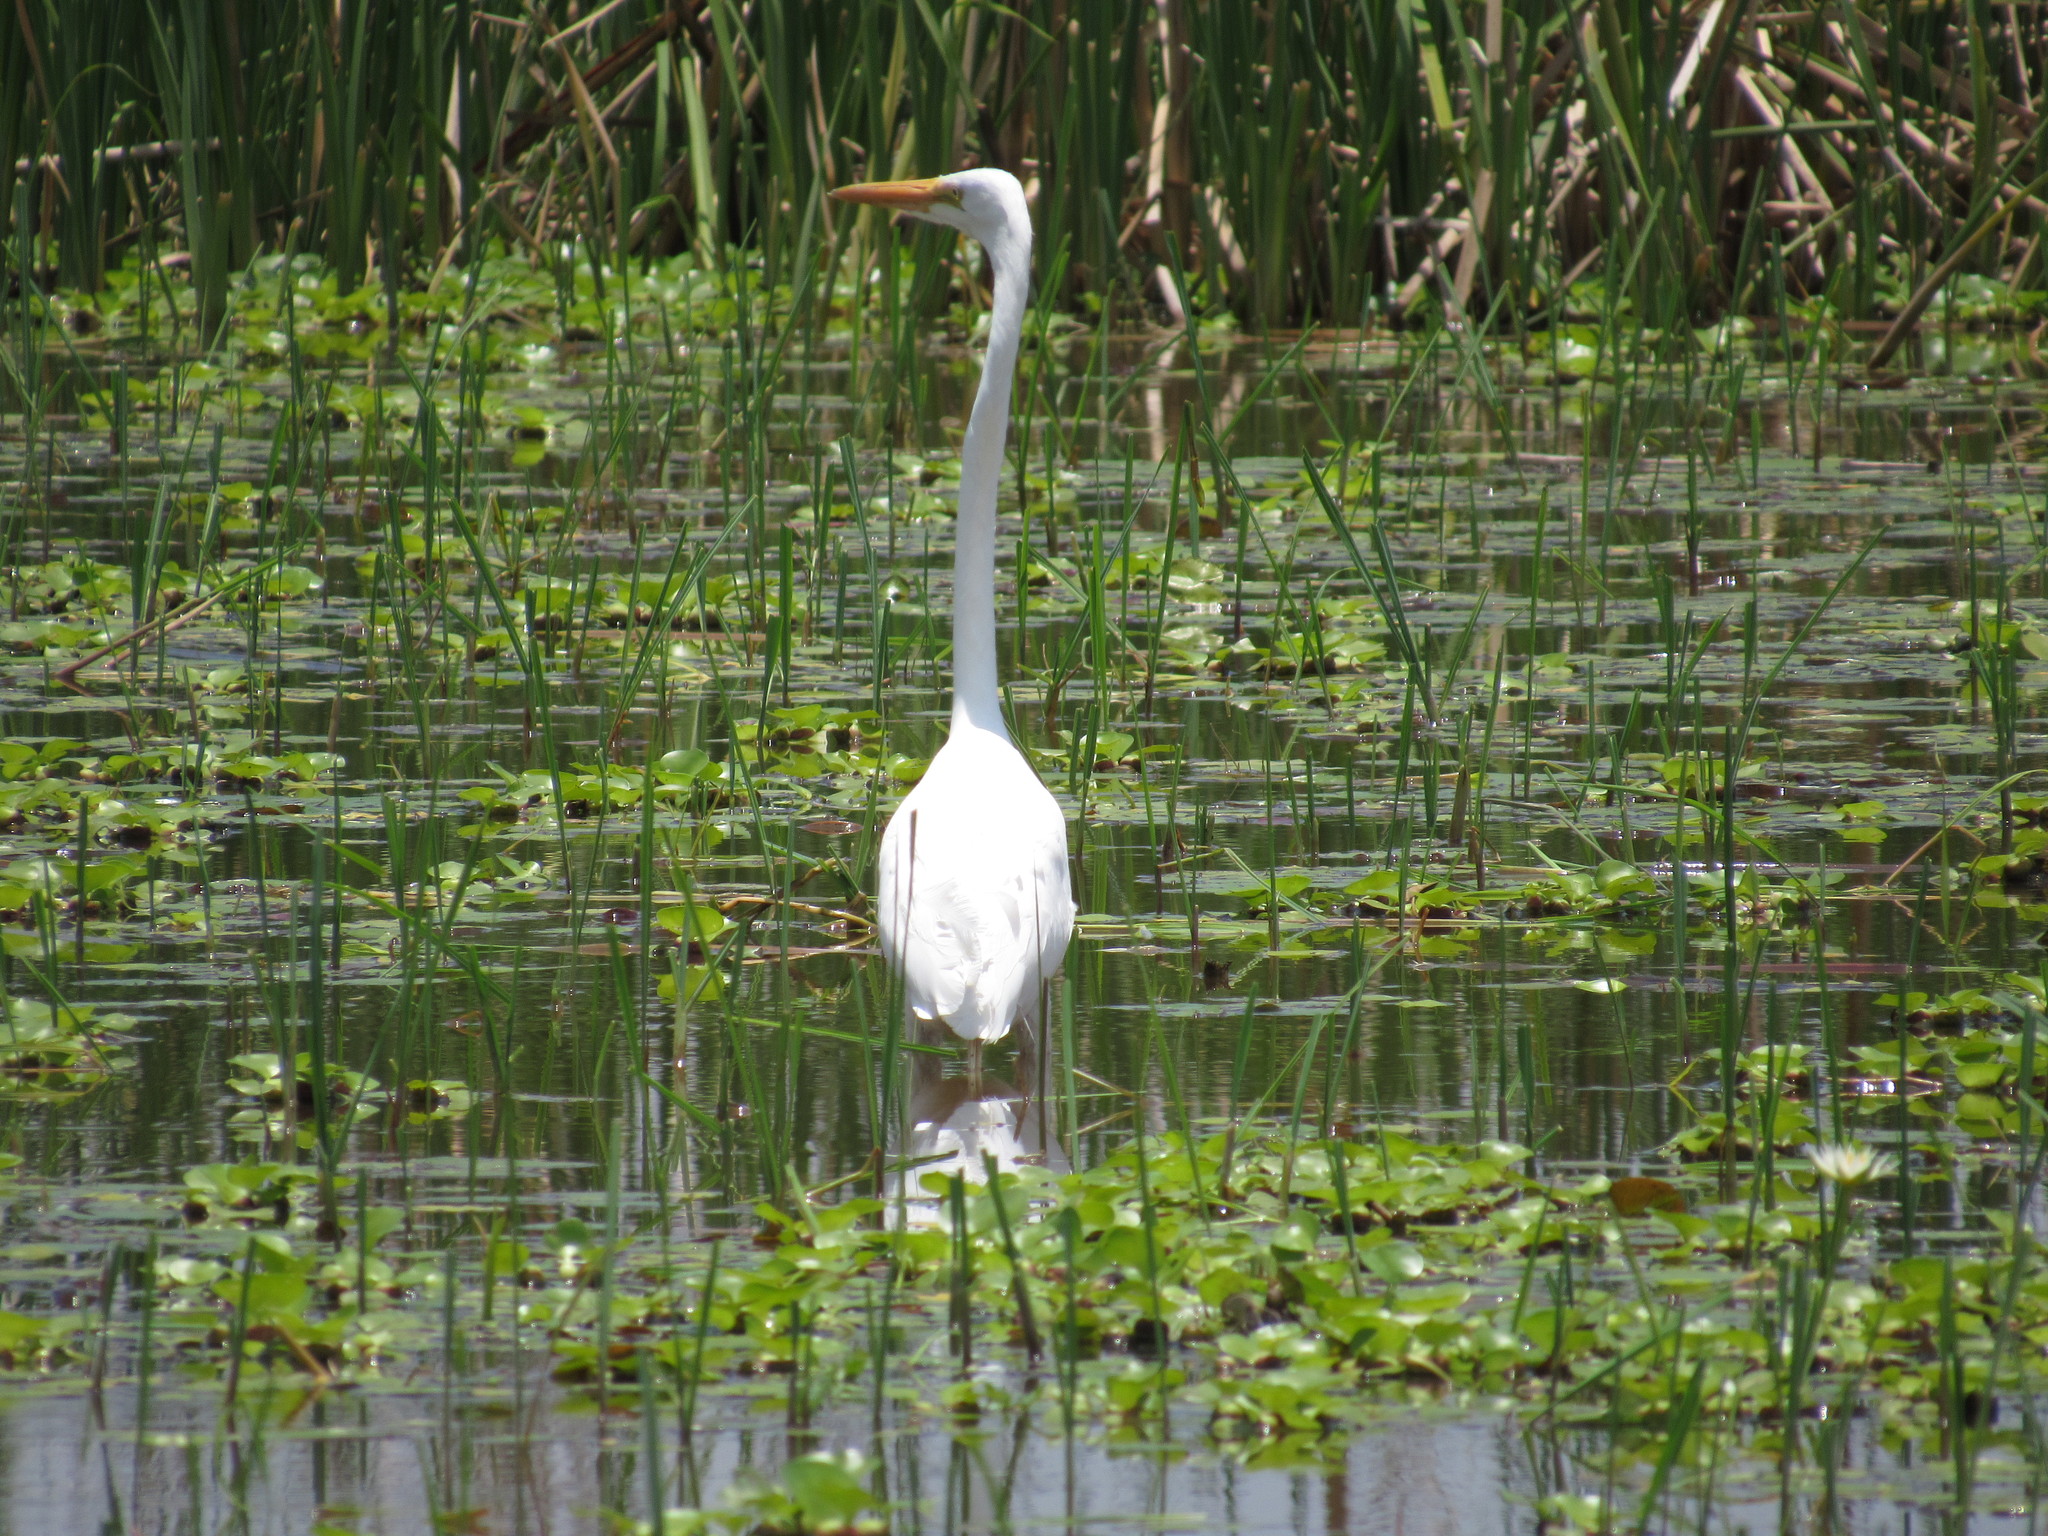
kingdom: Animalia
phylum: Chordata
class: Aves
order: Pelecaniformes
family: Ardeidae
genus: Ardea
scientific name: Ardea alba
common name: Great egret
